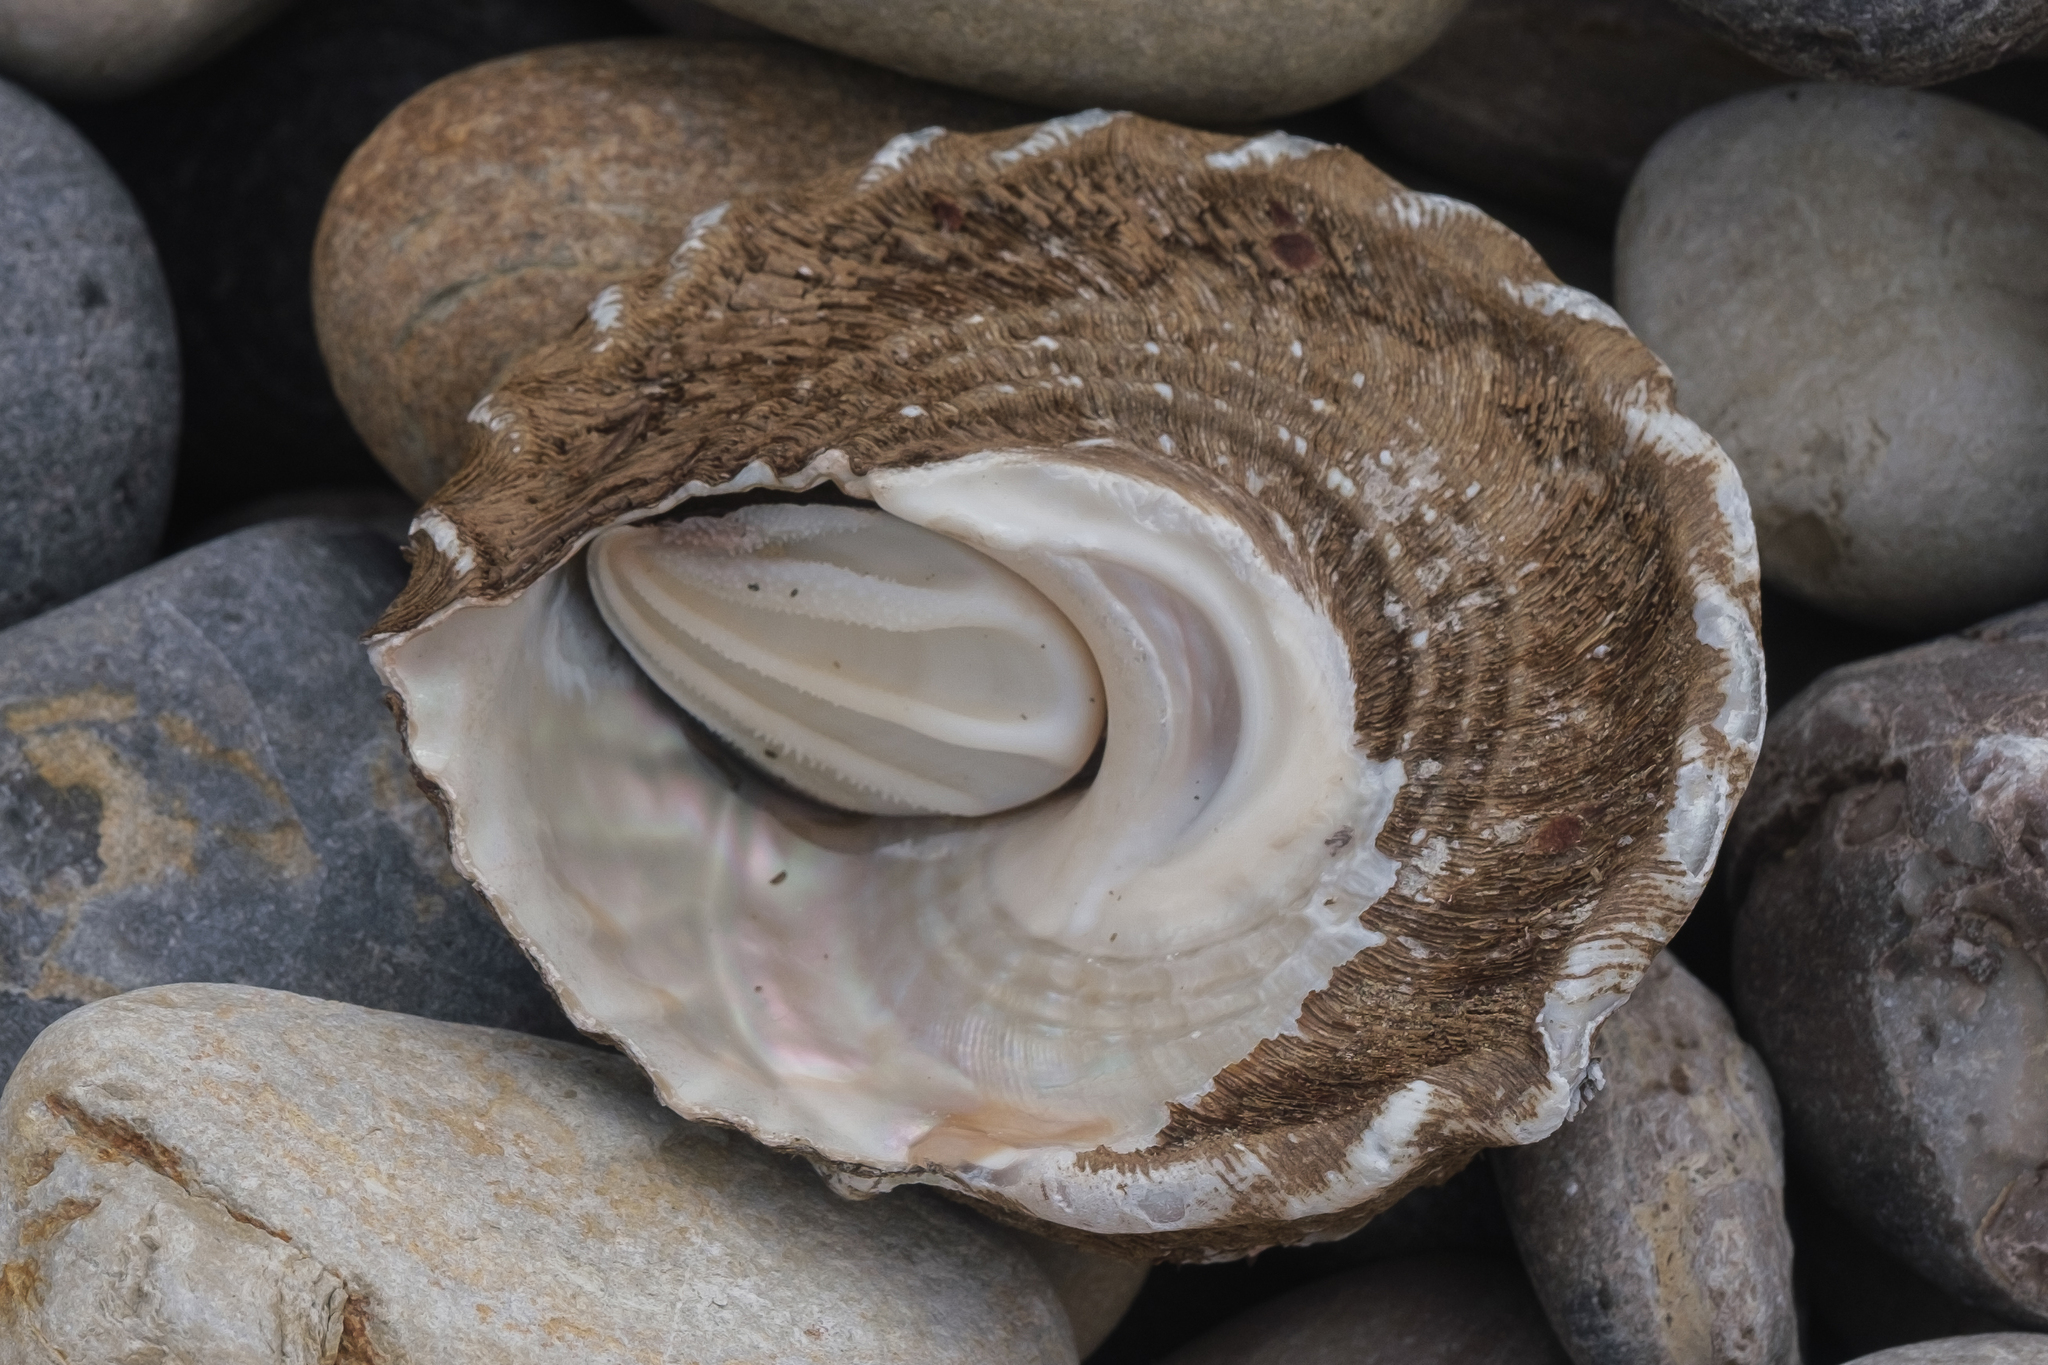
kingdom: Animalia
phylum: Mollusca
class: Gastropoda
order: Trochida
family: Turbinidae
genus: Megastraea
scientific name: Megastraea undosa
